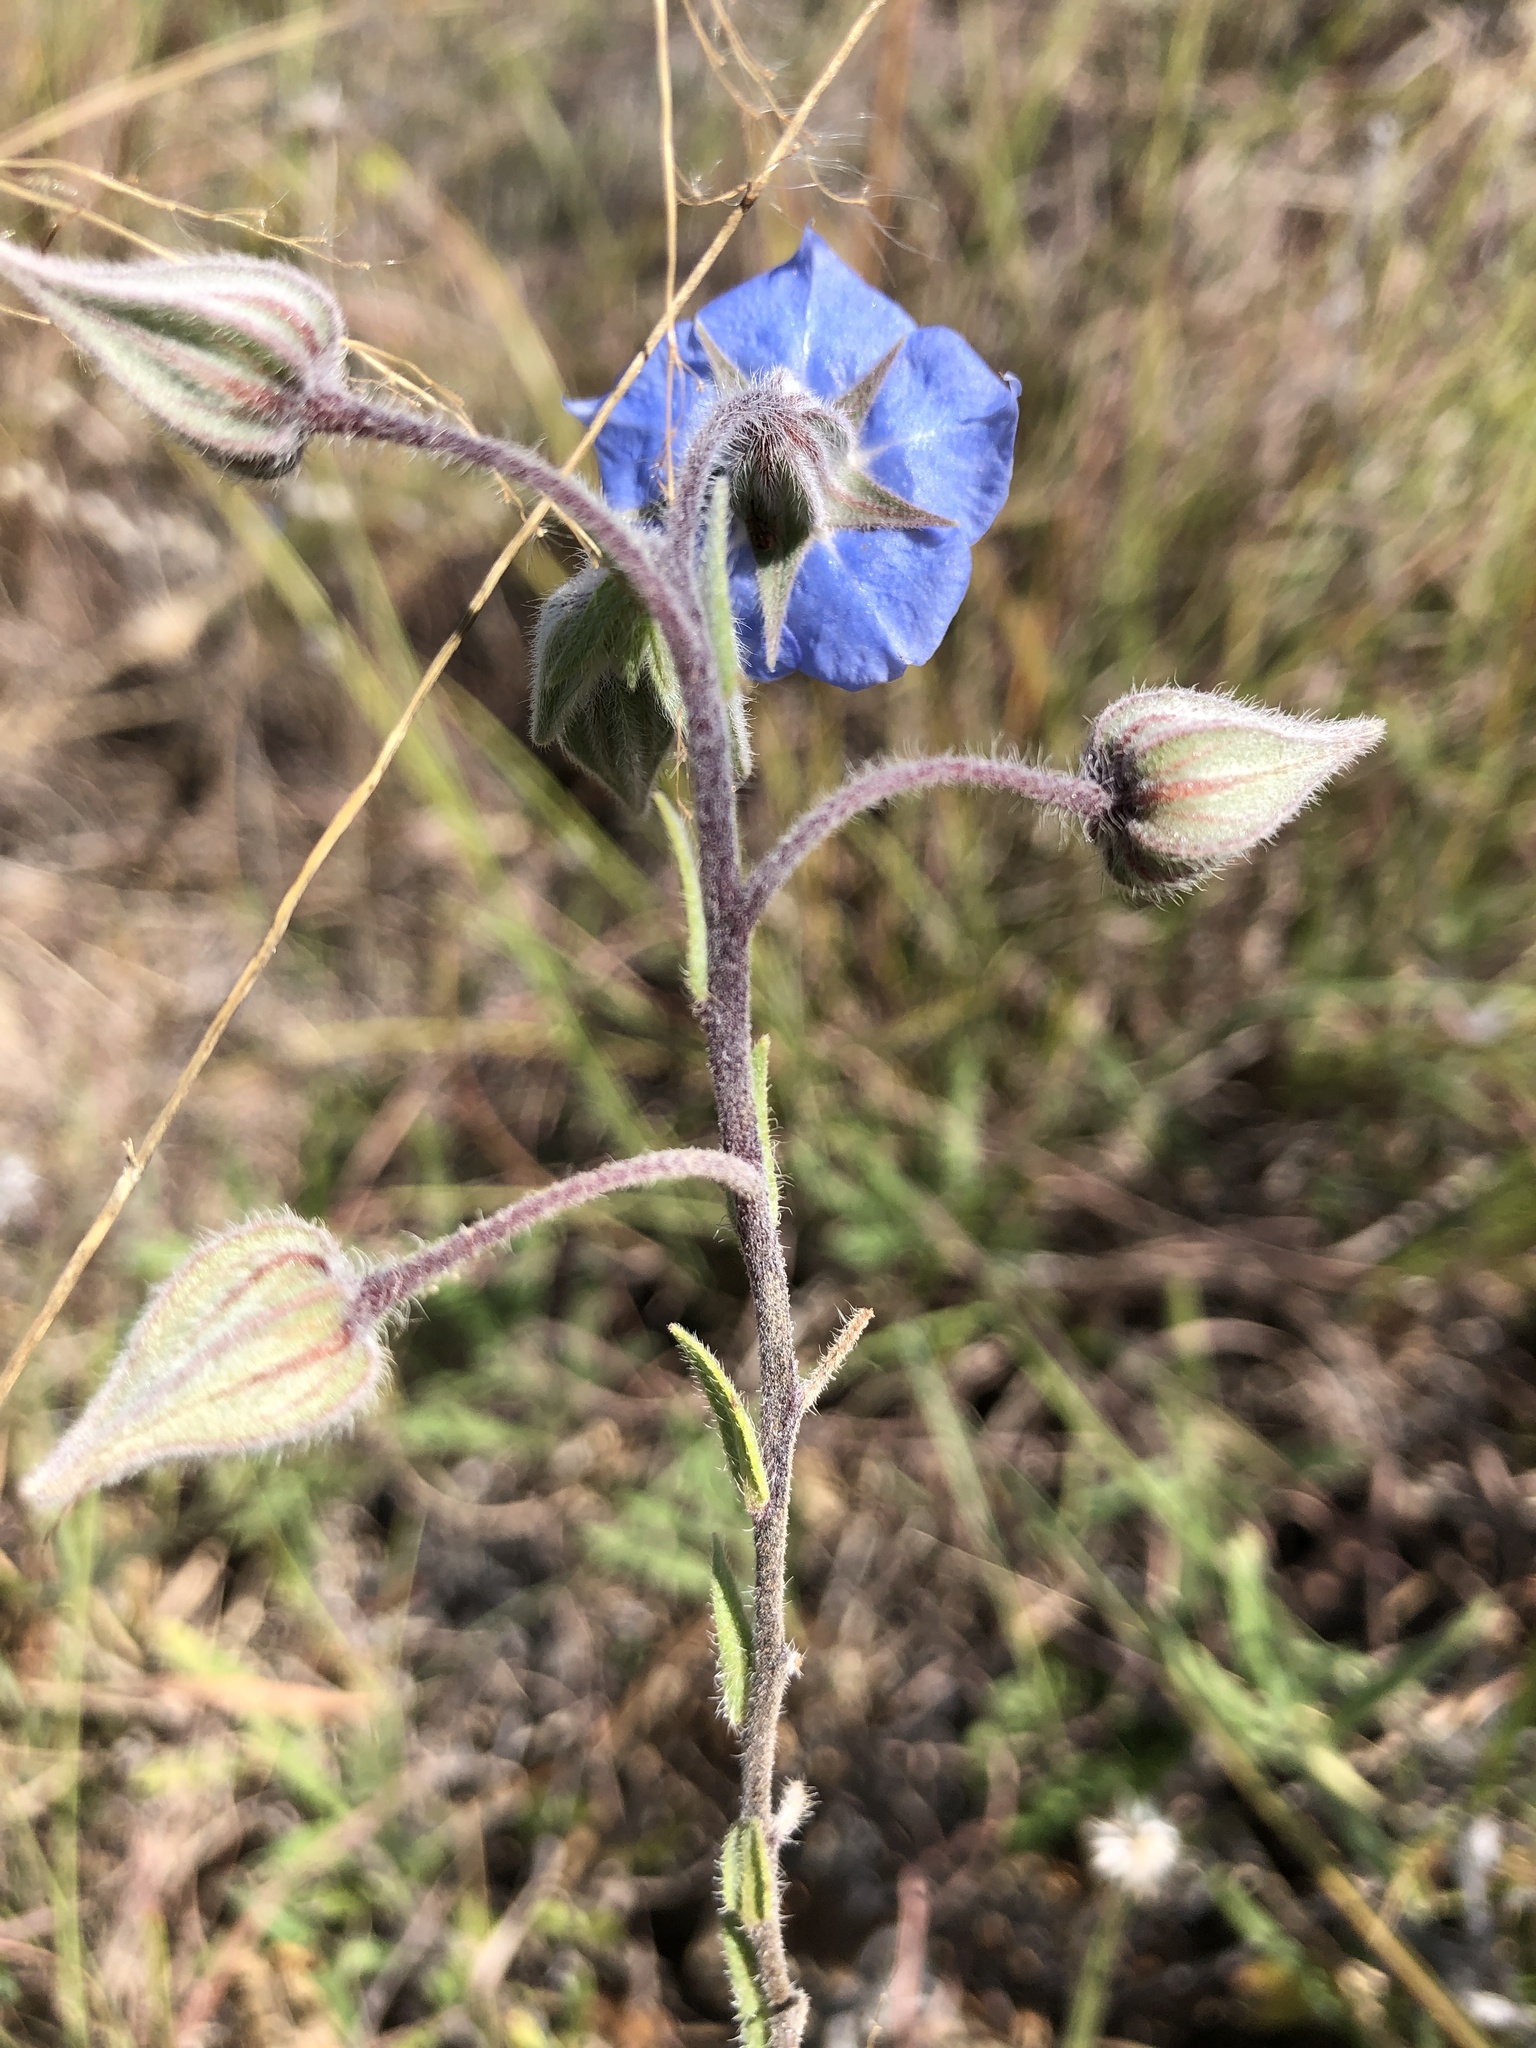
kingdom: Plantae
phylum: Tracheophyta
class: Magnoliopsida
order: Boraginales
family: Boraginaceae
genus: Trichodesma
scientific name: Trichodesma zeylanicum
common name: Camelbush
